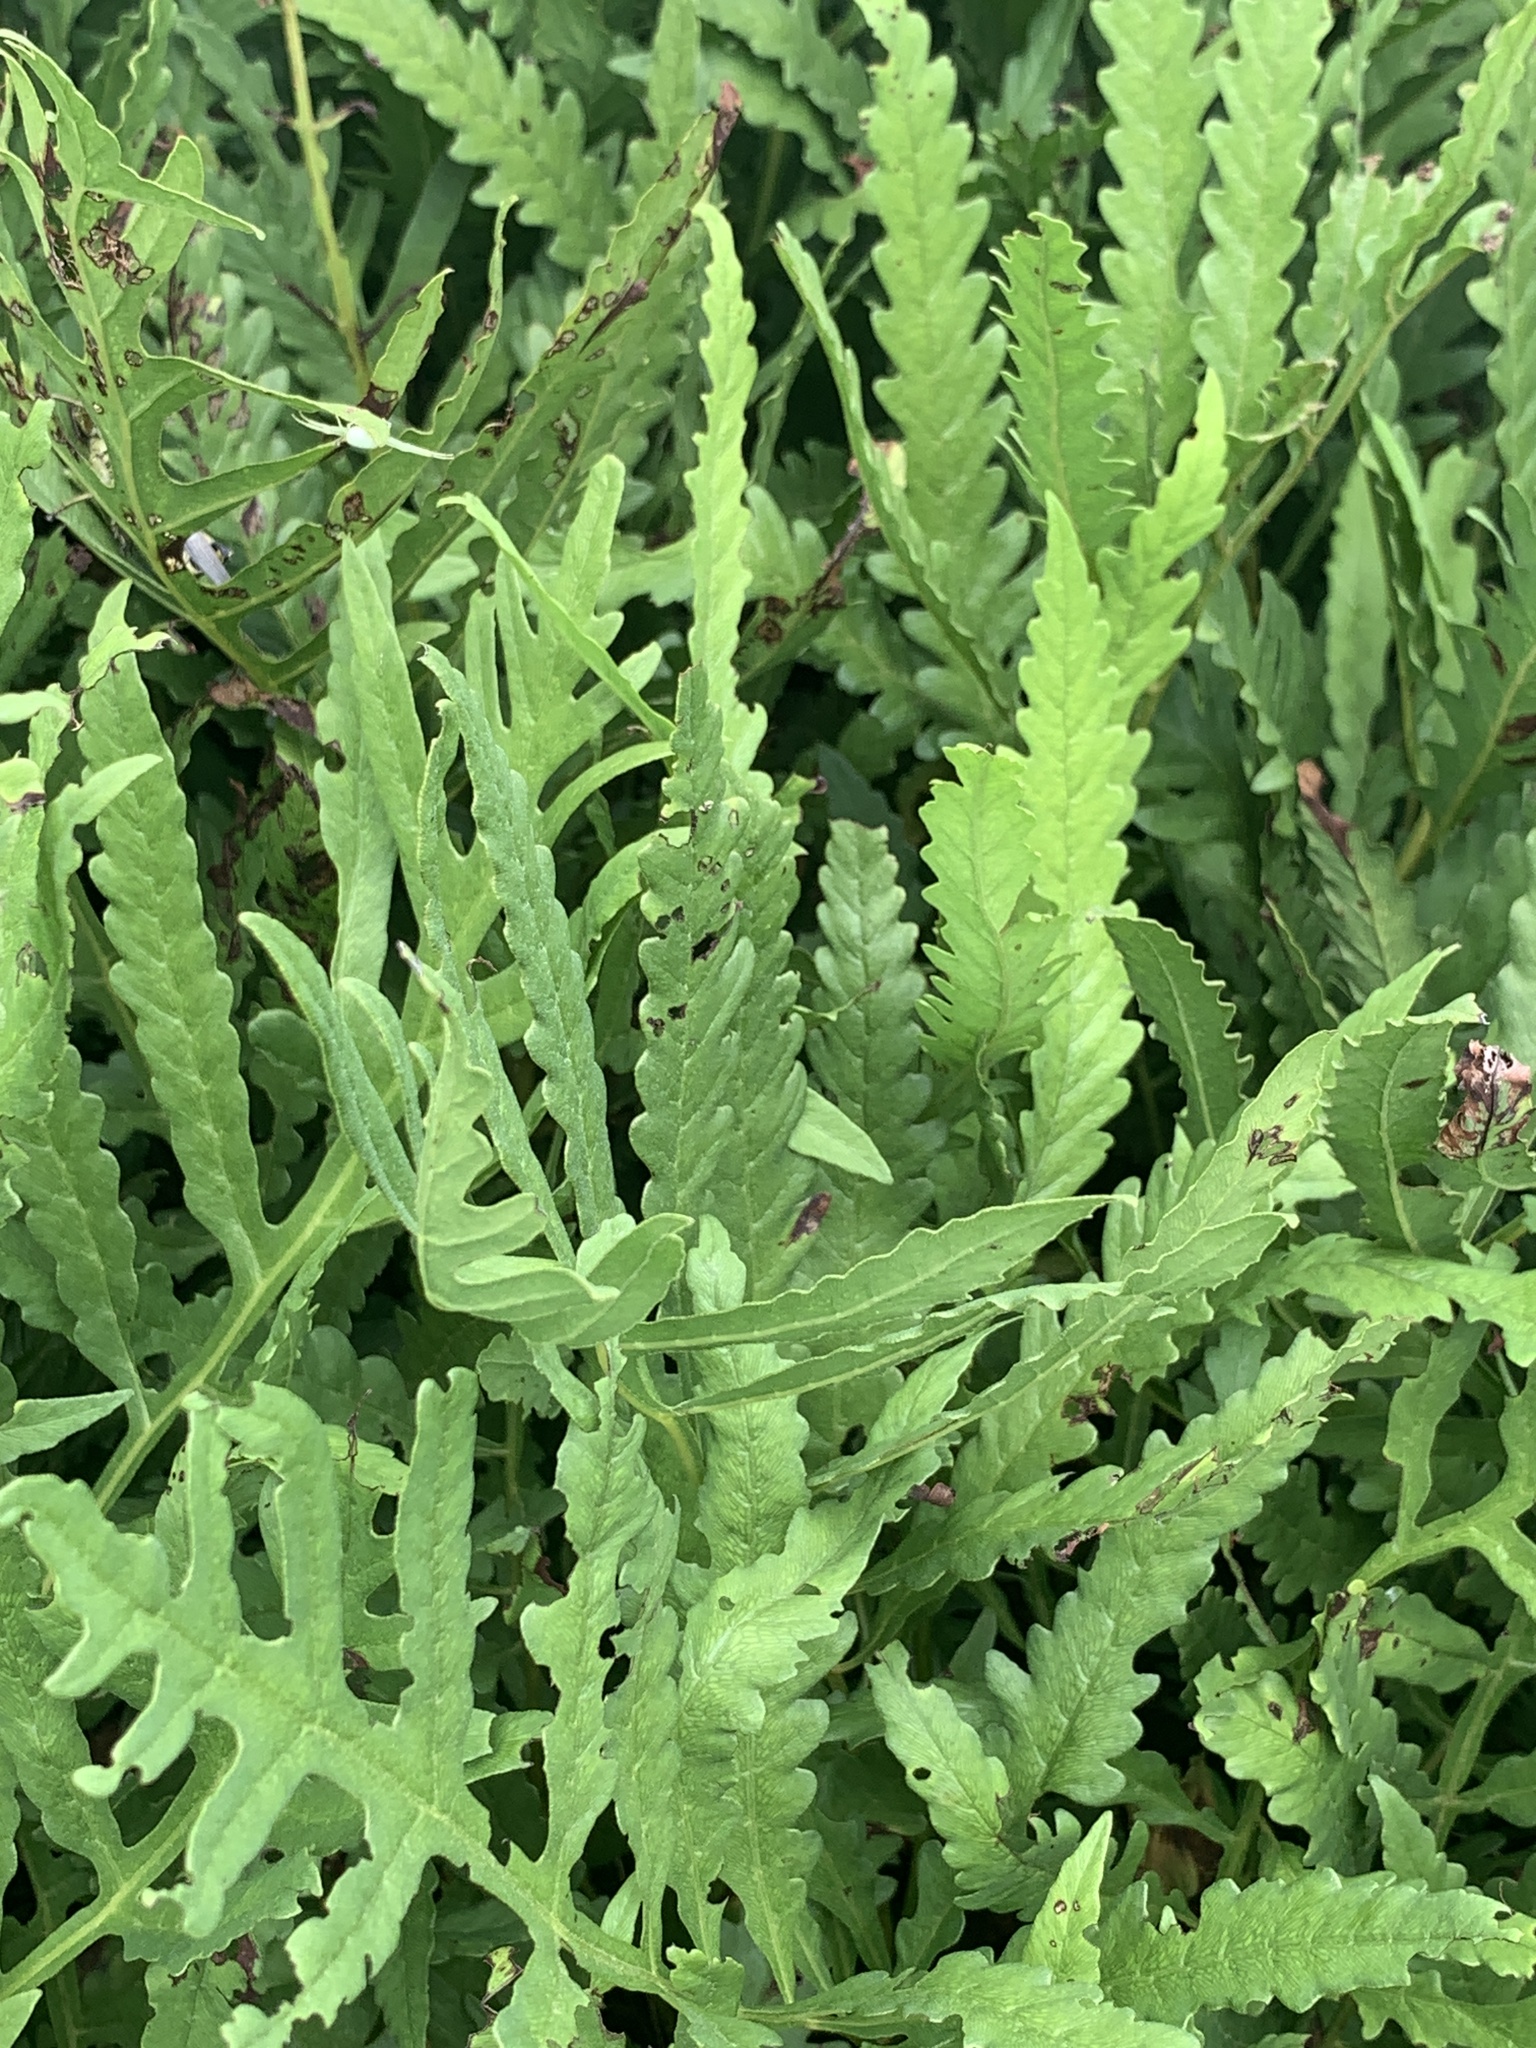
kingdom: Plantae
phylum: Tracheophyta
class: Polypodiopsida
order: Polypodiales
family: Onocleaceae
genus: Onoclea
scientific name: Onoclea sensibilis
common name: Sensitive fern
